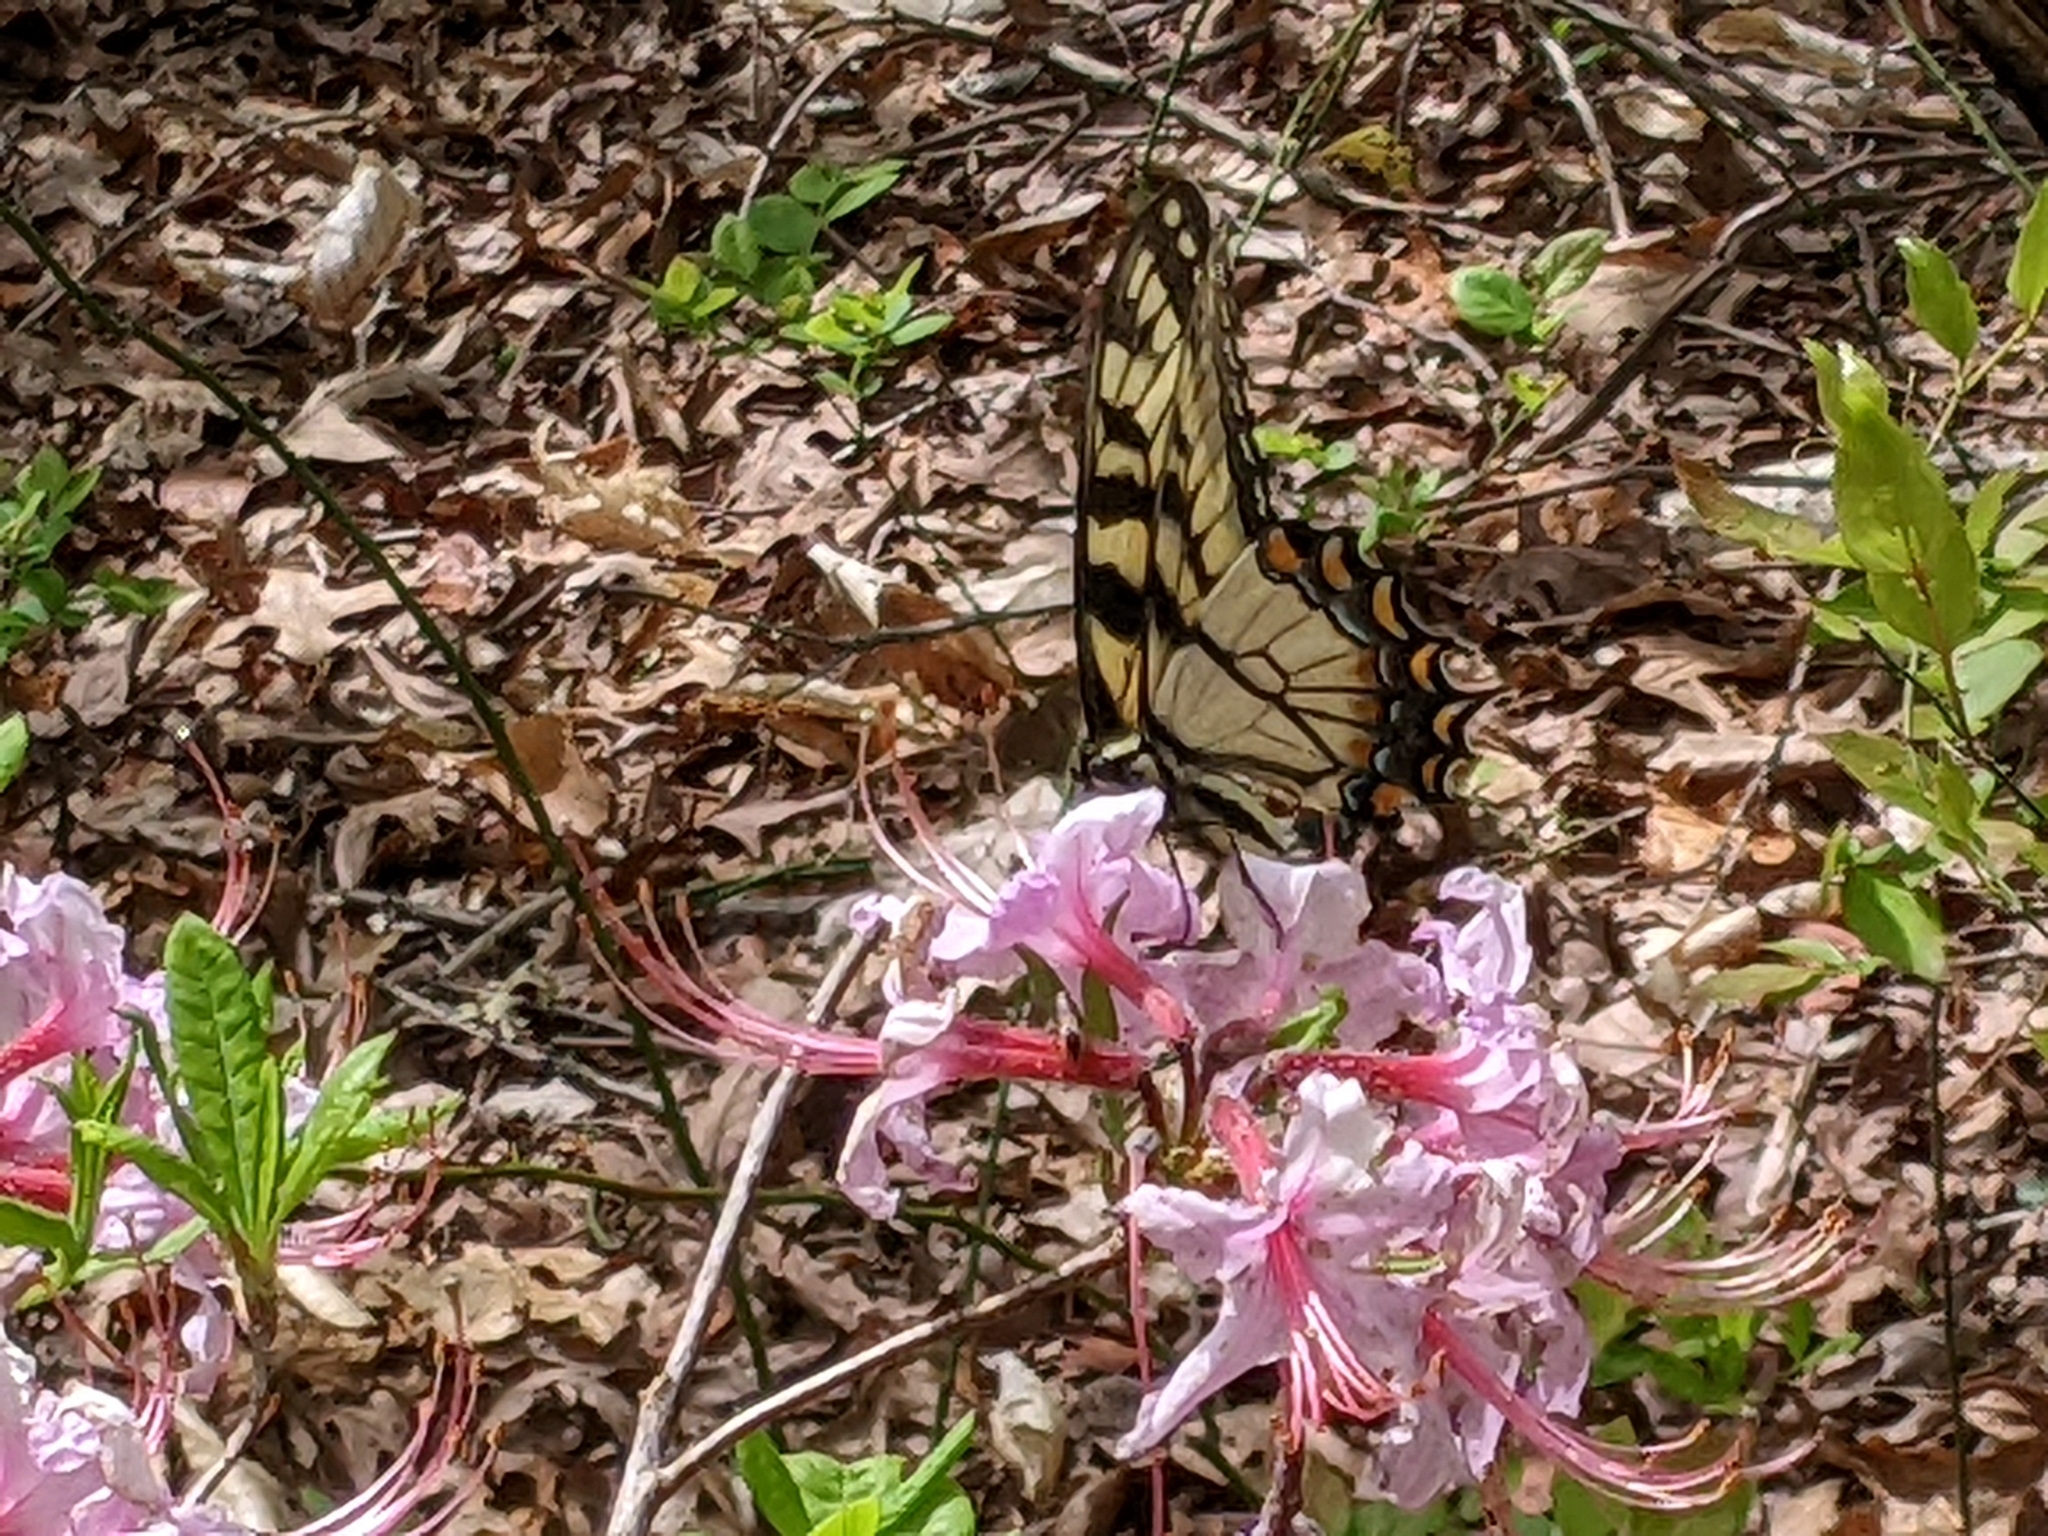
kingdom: Animalia
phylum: Arthropoda
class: Insecta
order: Lepidoptera
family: Papilionidae
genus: Papilio
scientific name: Papilio glaucus
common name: Tiger swallowtail
